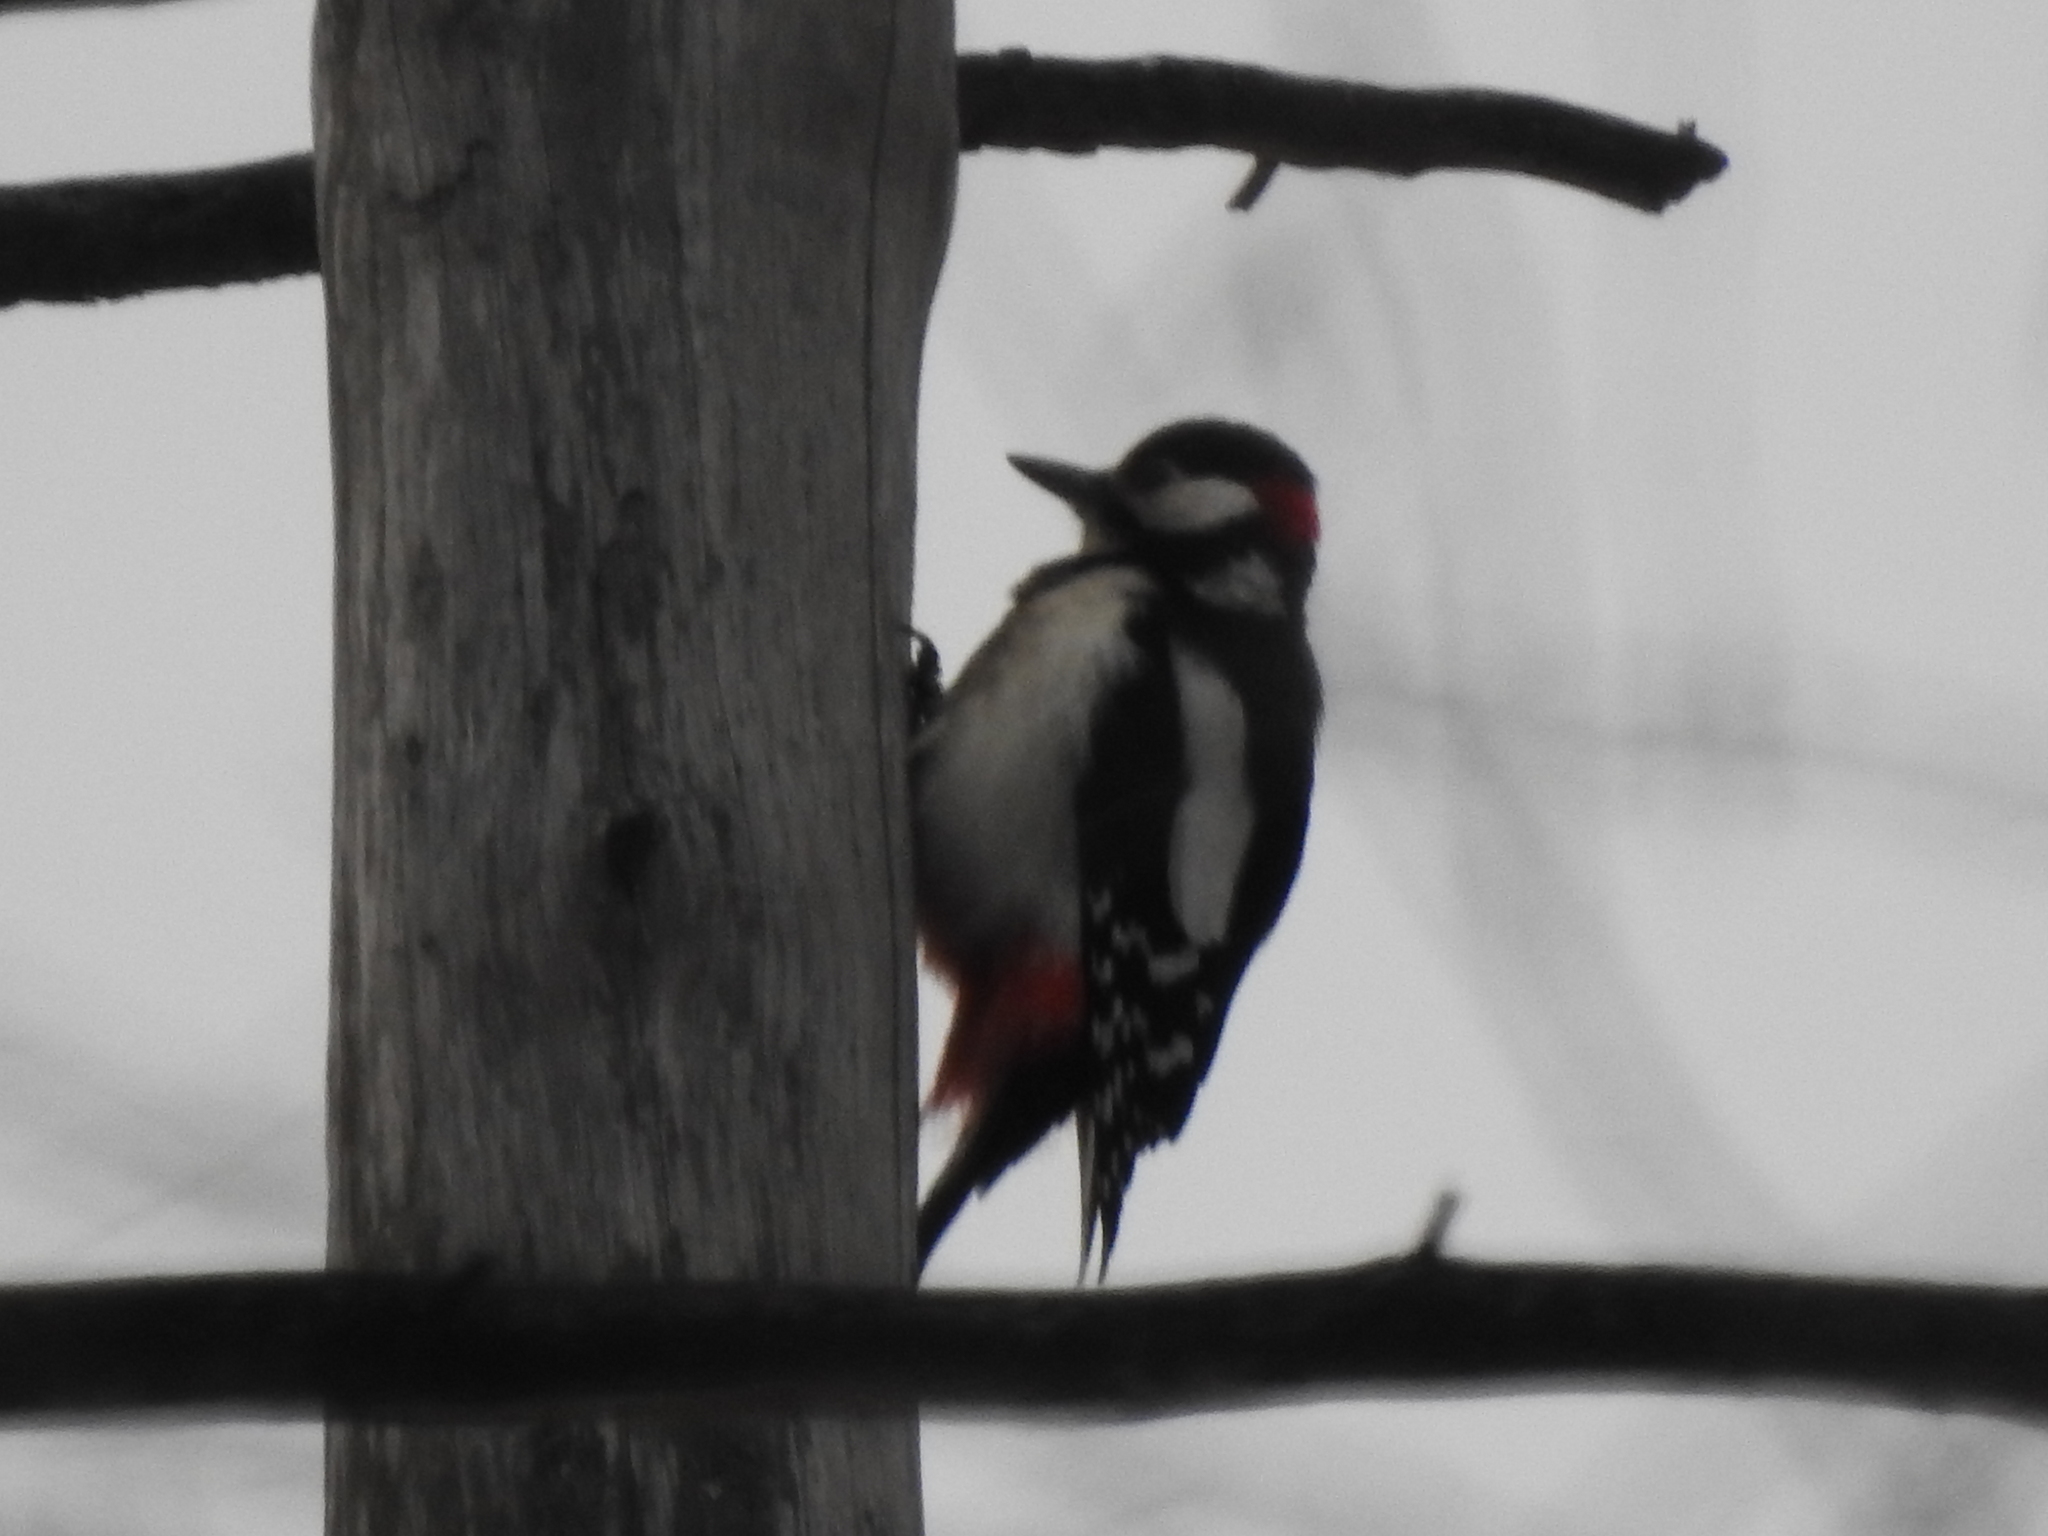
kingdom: Animalia
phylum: Chordata
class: Aves
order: Piciformes
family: Picidae
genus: Dendrocopos
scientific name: Dendrocopos major
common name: Great spotted woodpecker
